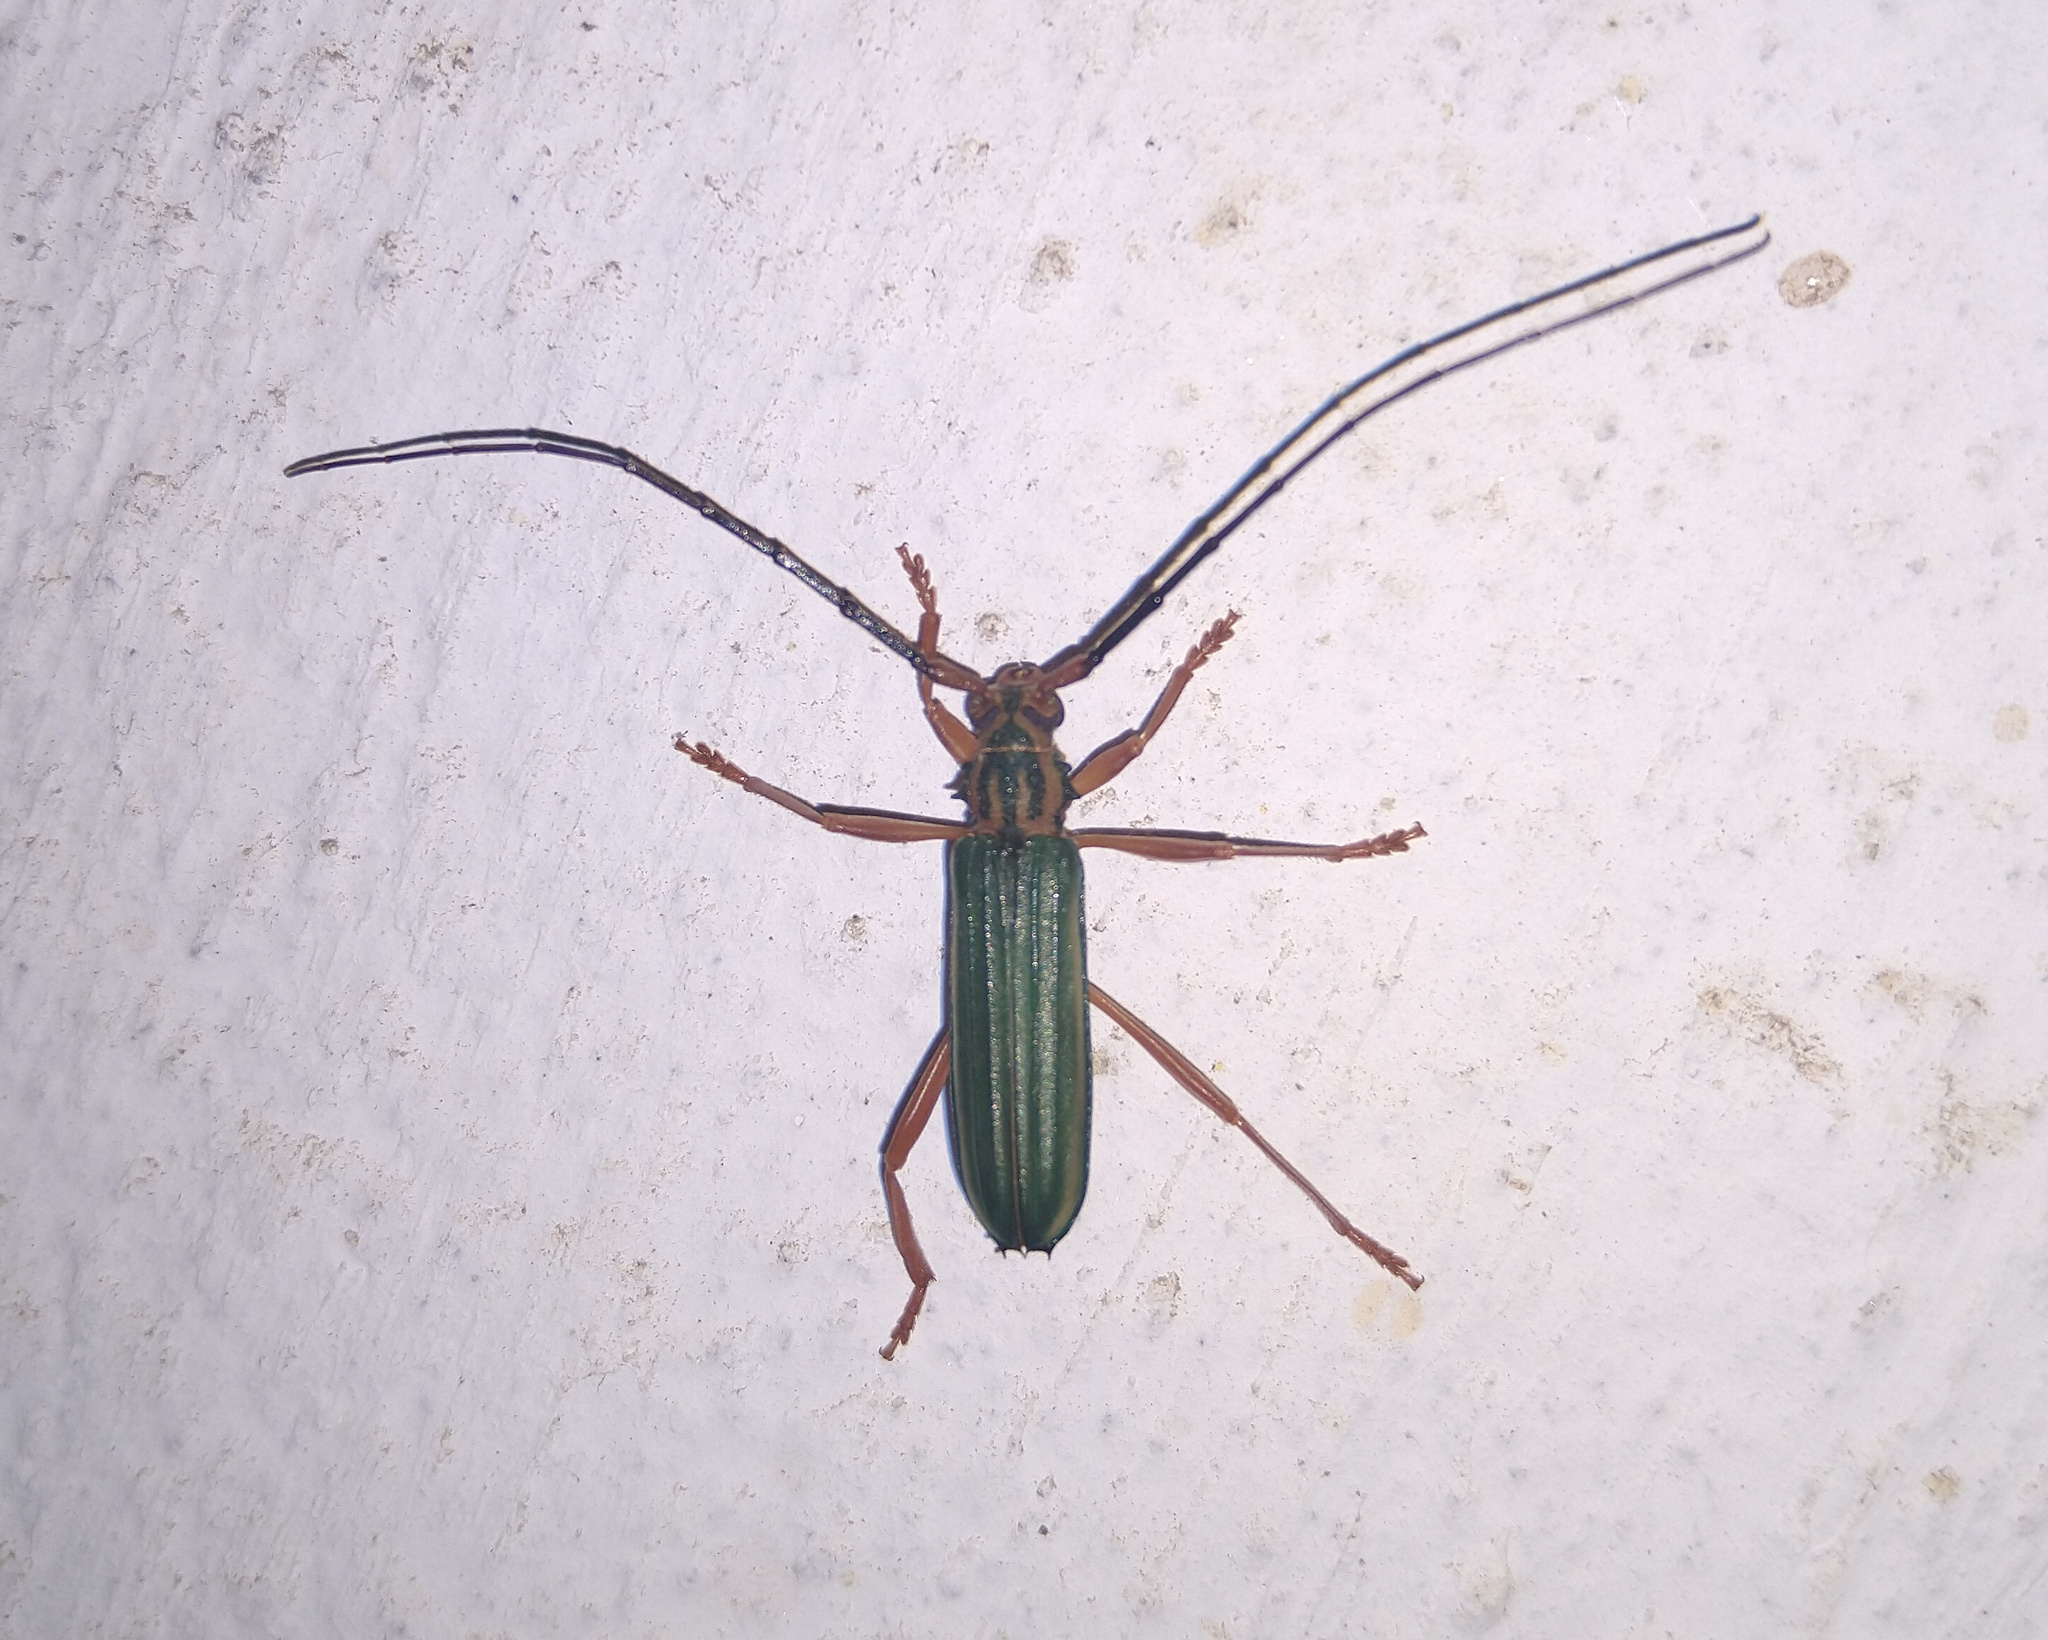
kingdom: Animalia
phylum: Arthropoda
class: Insecta
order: Coleoptera
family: Cerambycidae
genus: Chlorida
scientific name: Chlorida festiva
